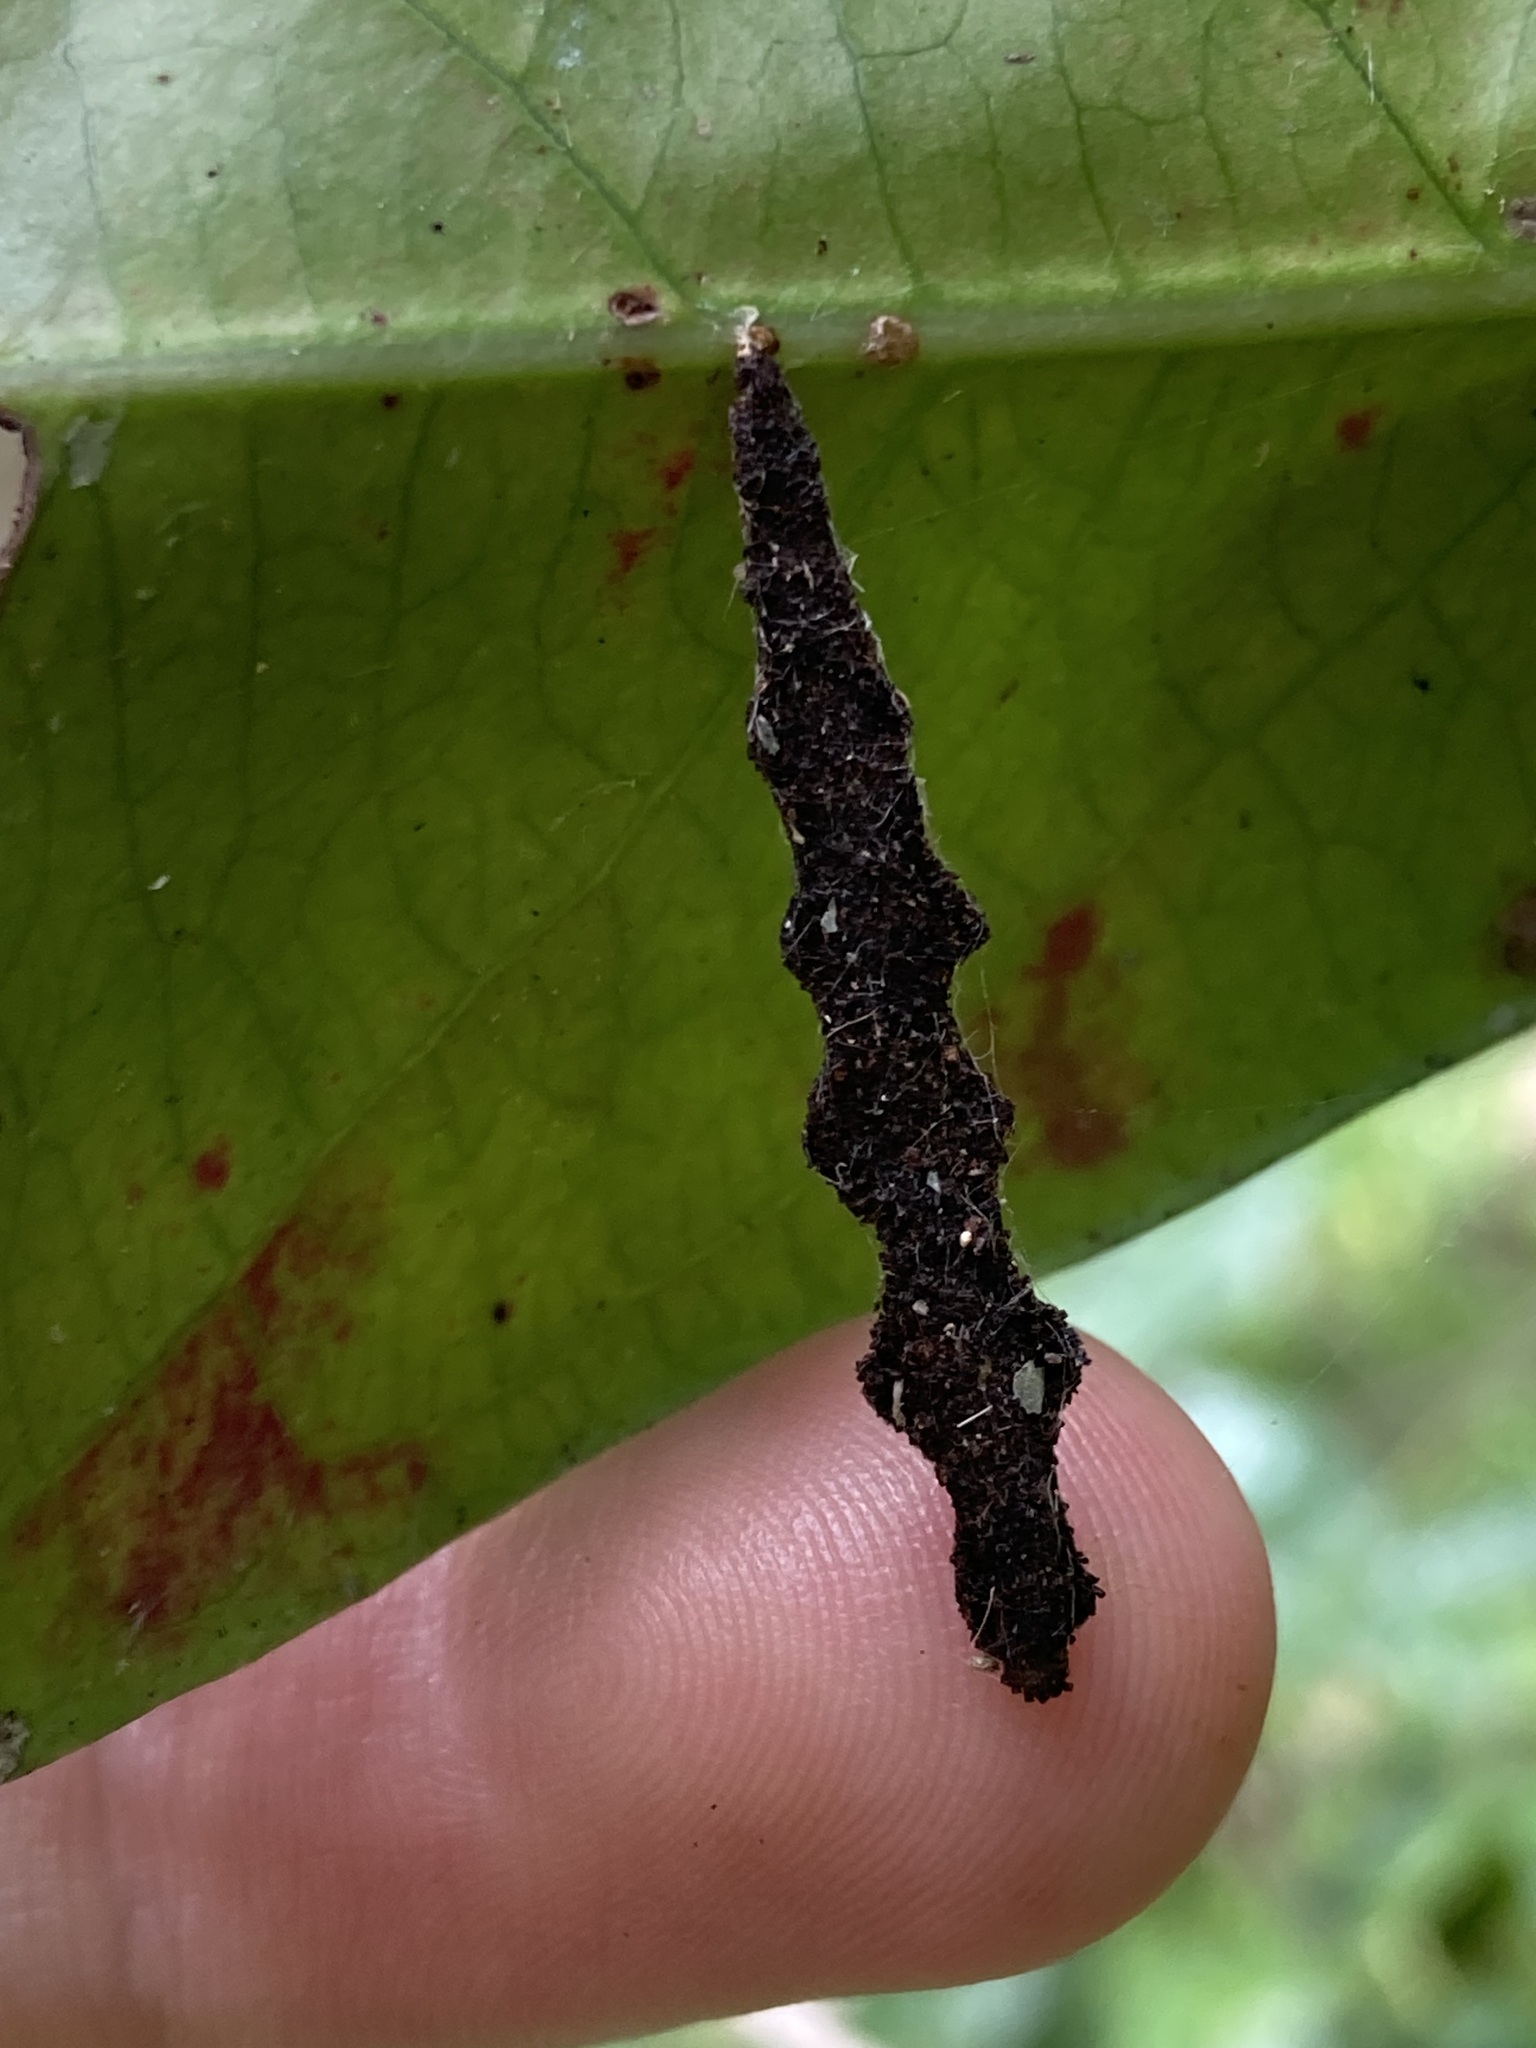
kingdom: Animalia
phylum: Arthropoda
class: Insecta
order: Lepidoptera
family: Pyralidae
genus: Stericta
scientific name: Stericta orchidivora
